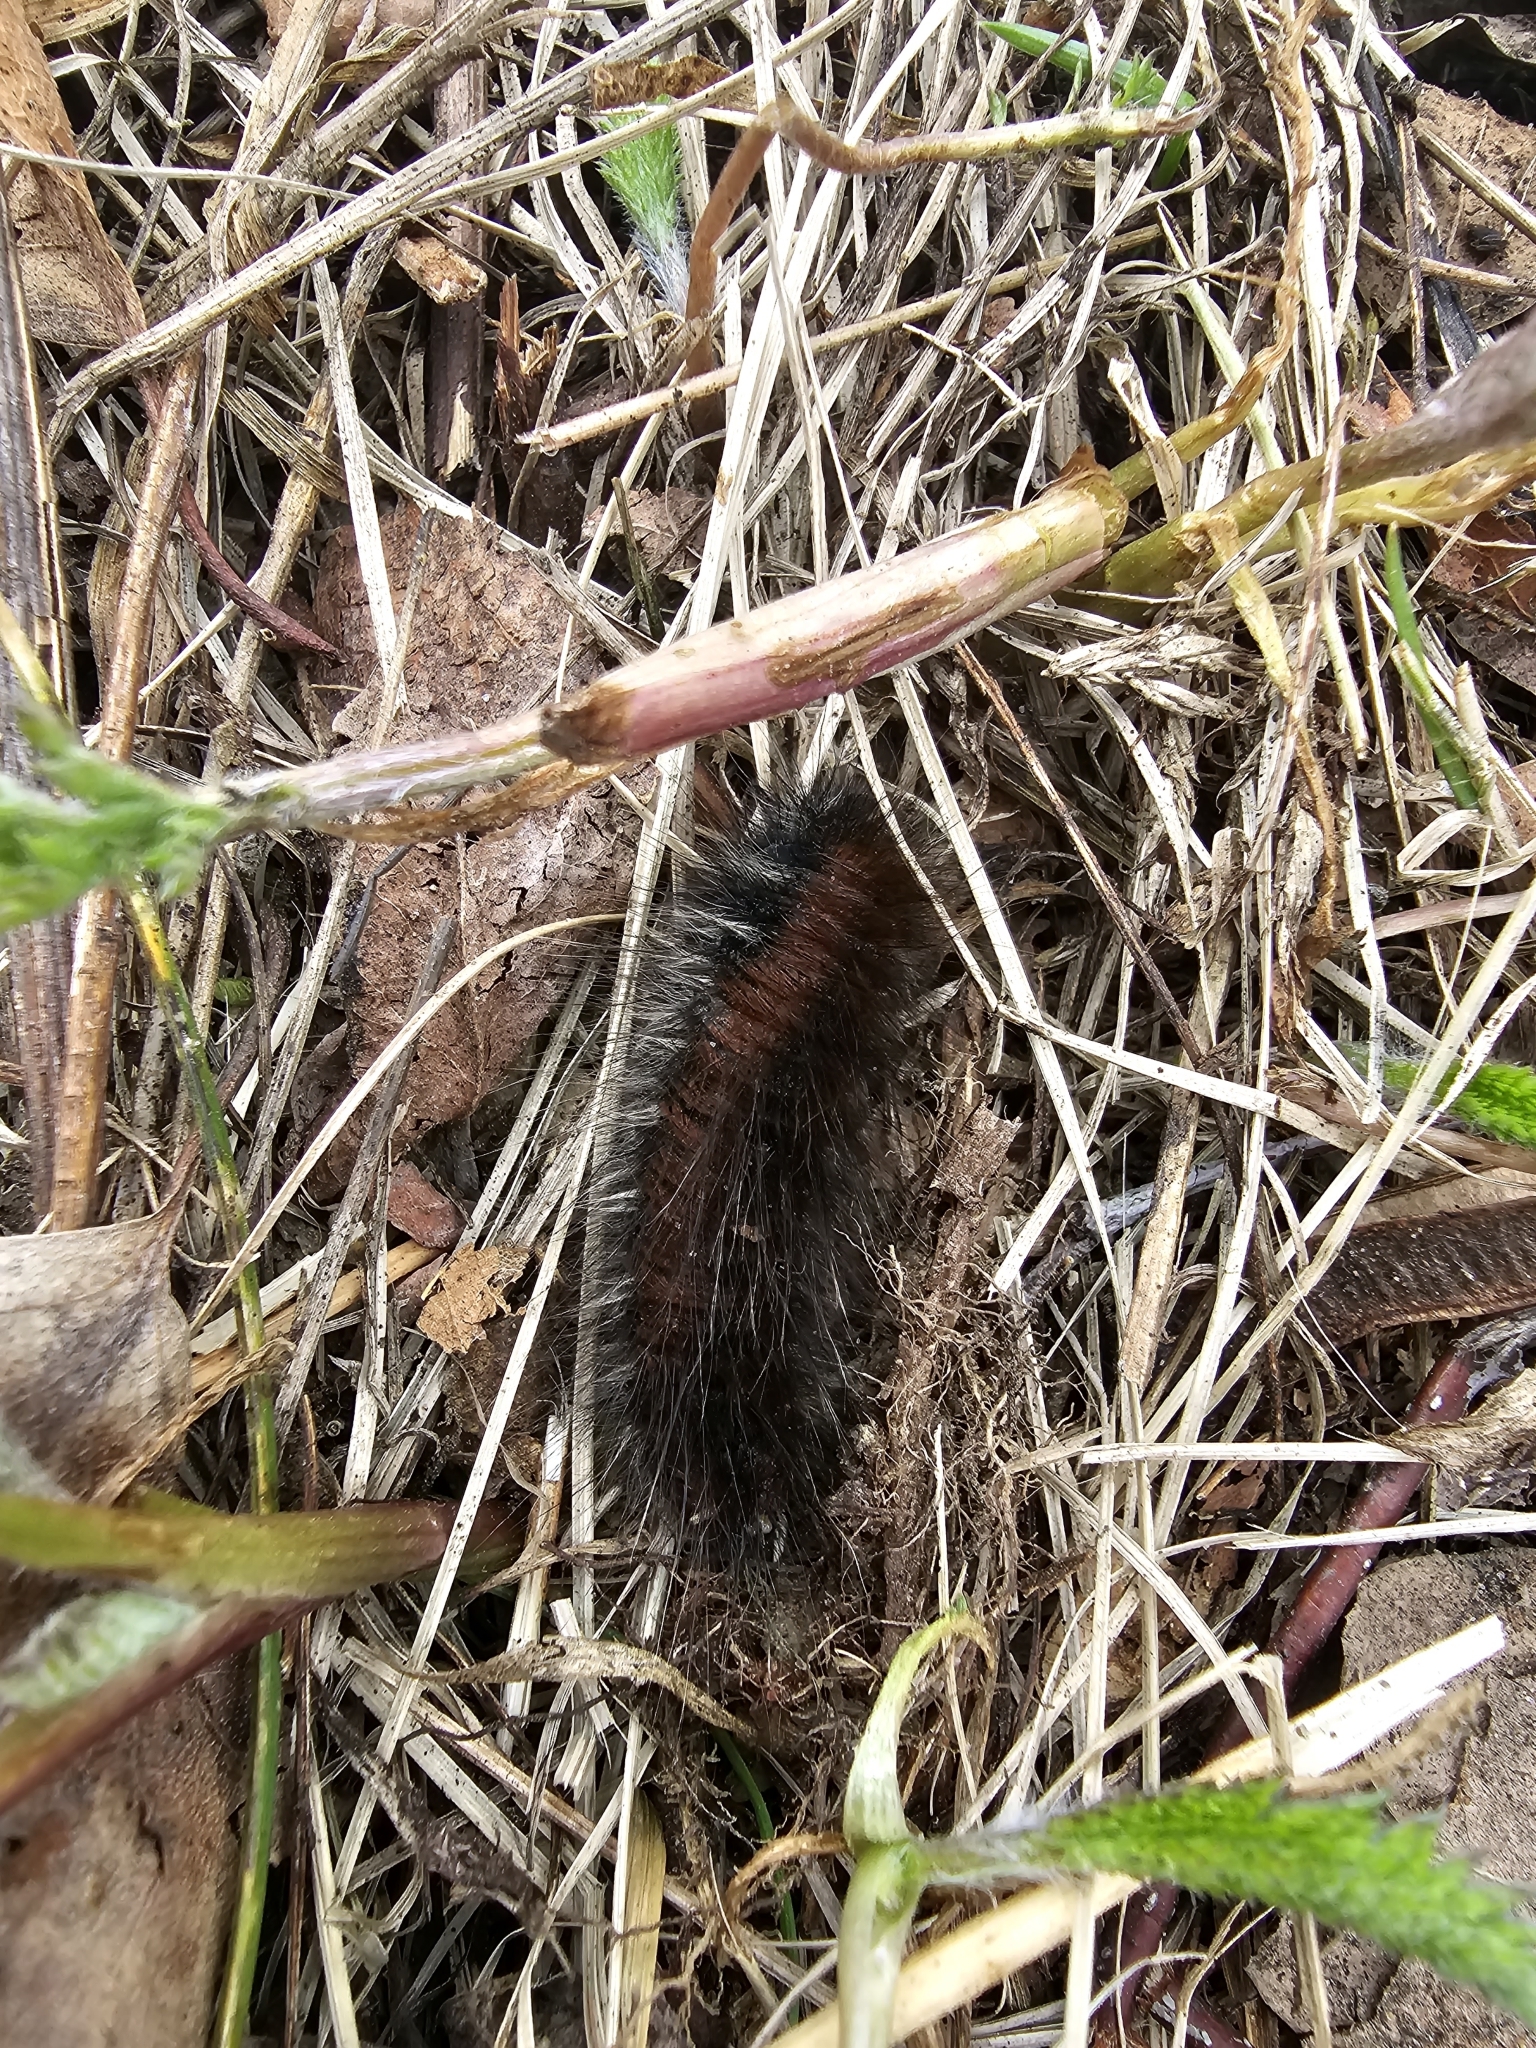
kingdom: Animalia
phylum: Arthropoda
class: Insecta
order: Lepidoptera
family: Lasiocampidae
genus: Macrothylacia
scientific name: Macrothylacia rubi
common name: Fox moth
